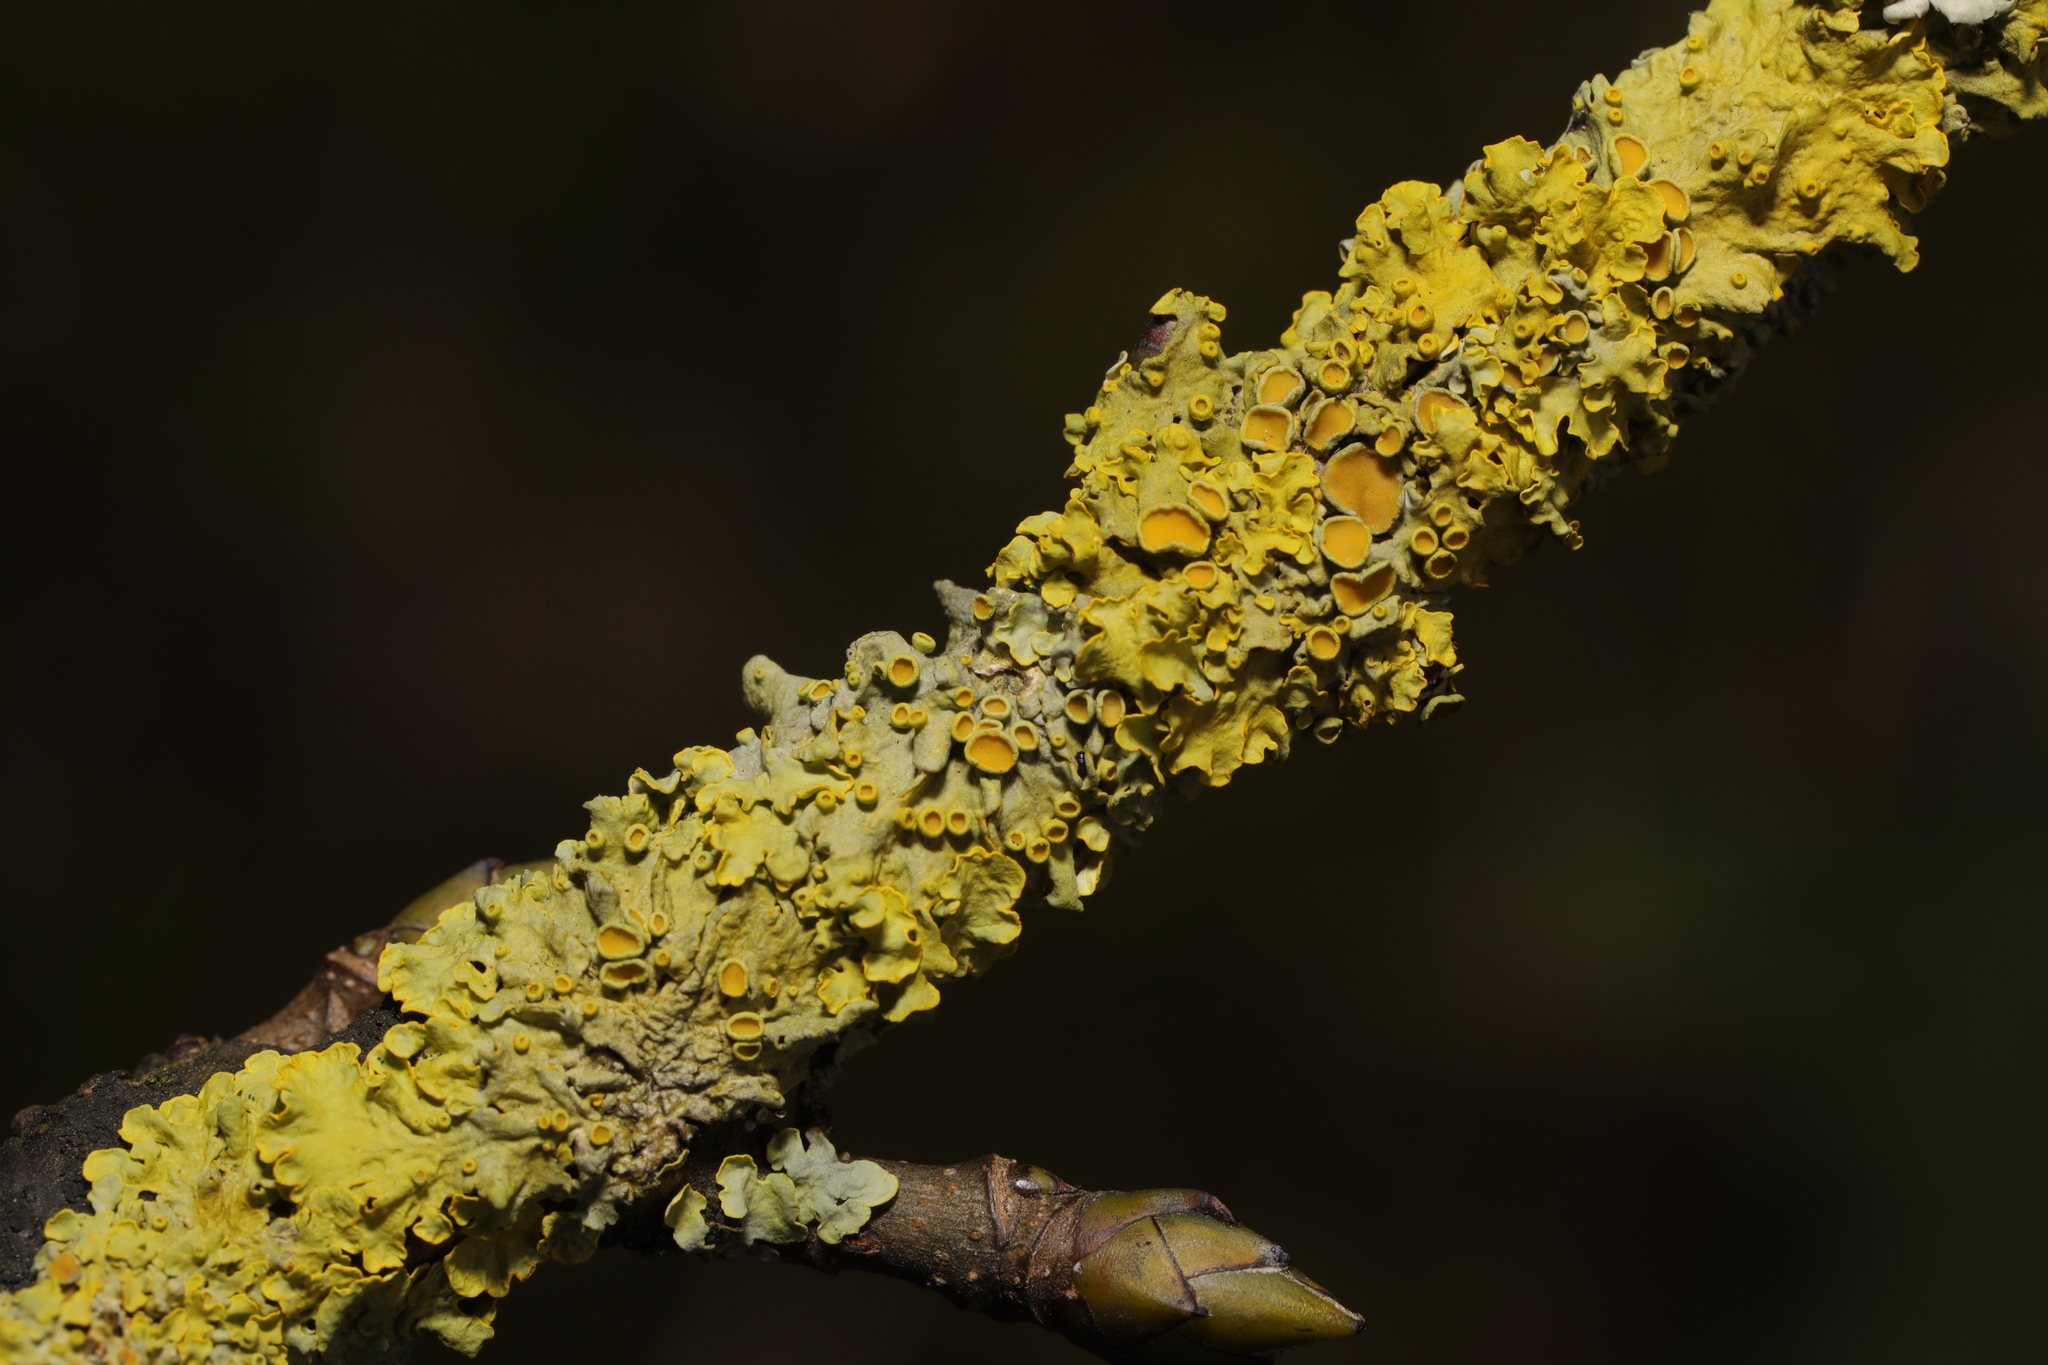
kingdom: Fungi
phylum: Ascomycota
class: Lecanoromycetes
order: Teloschistales
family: Teloschistaceae
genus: Xanthoria
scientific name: Xanthoria parietina
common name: Common orange lichen
